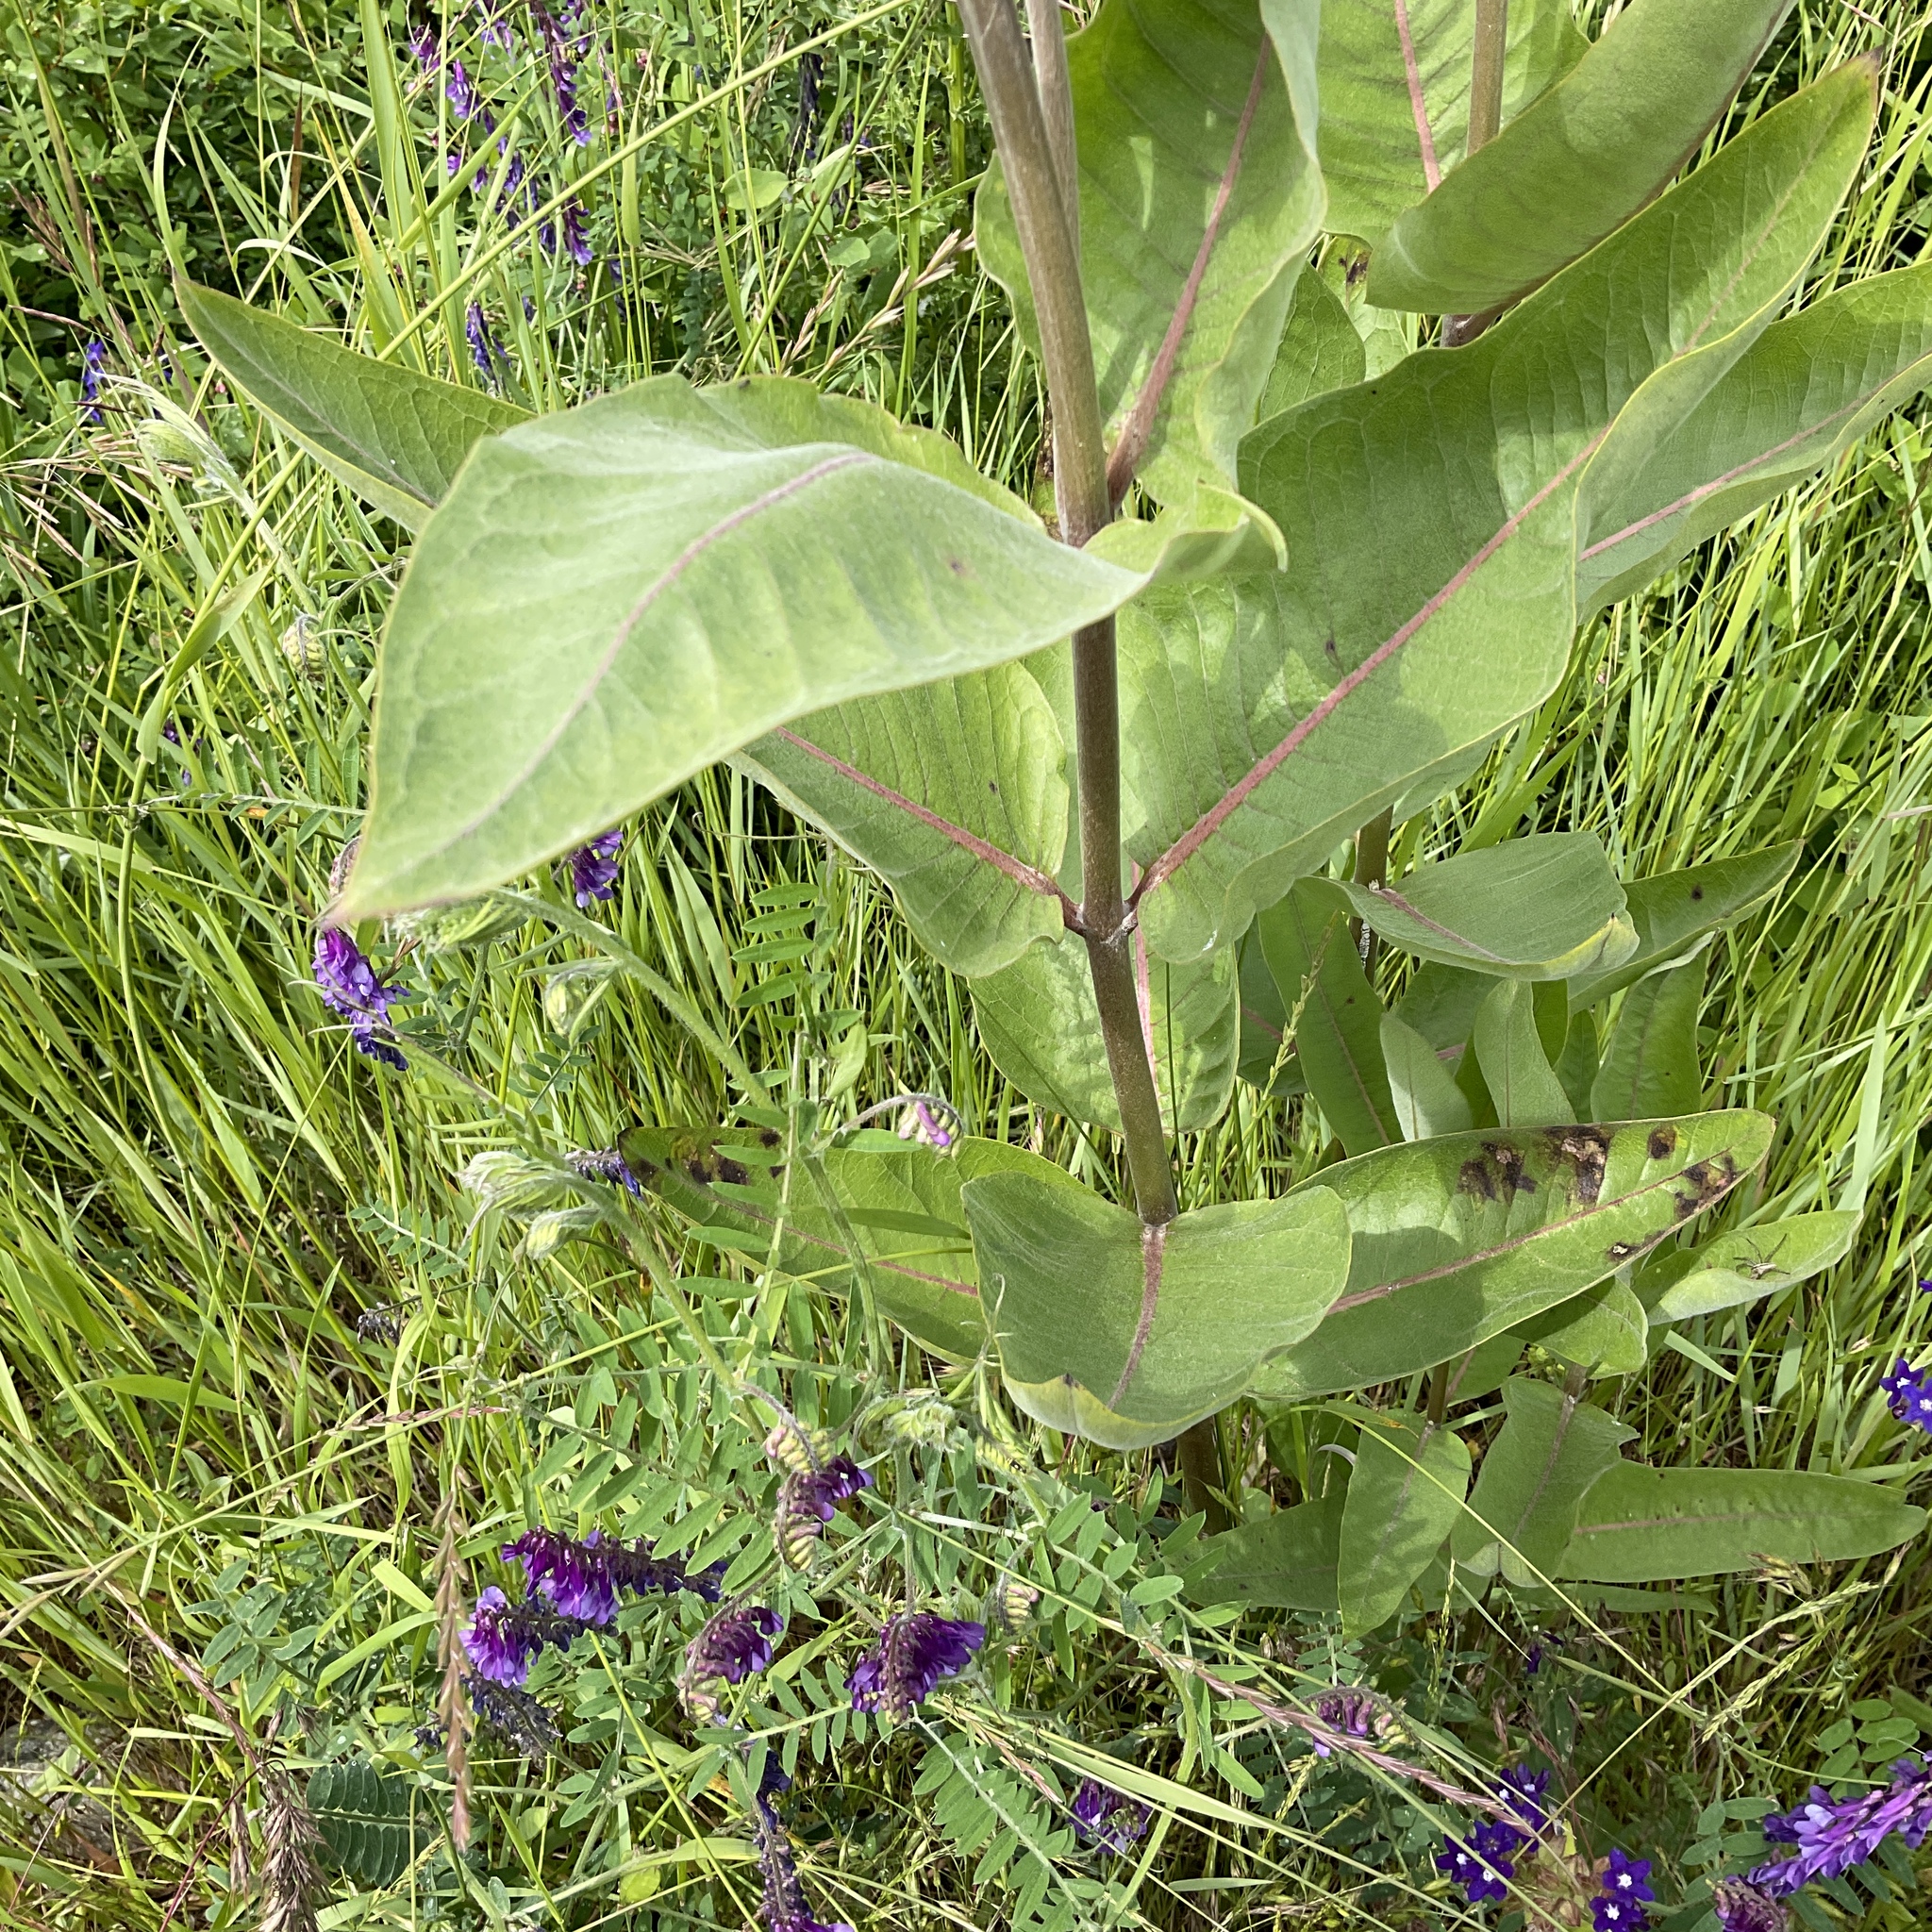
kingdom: Plantae
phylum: Tracheophyta
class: Magnoliopsida
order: Gentianales
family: Apocynaceae
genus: Asclepias
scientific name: Asclepias speciosa
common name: Showy milkweed
